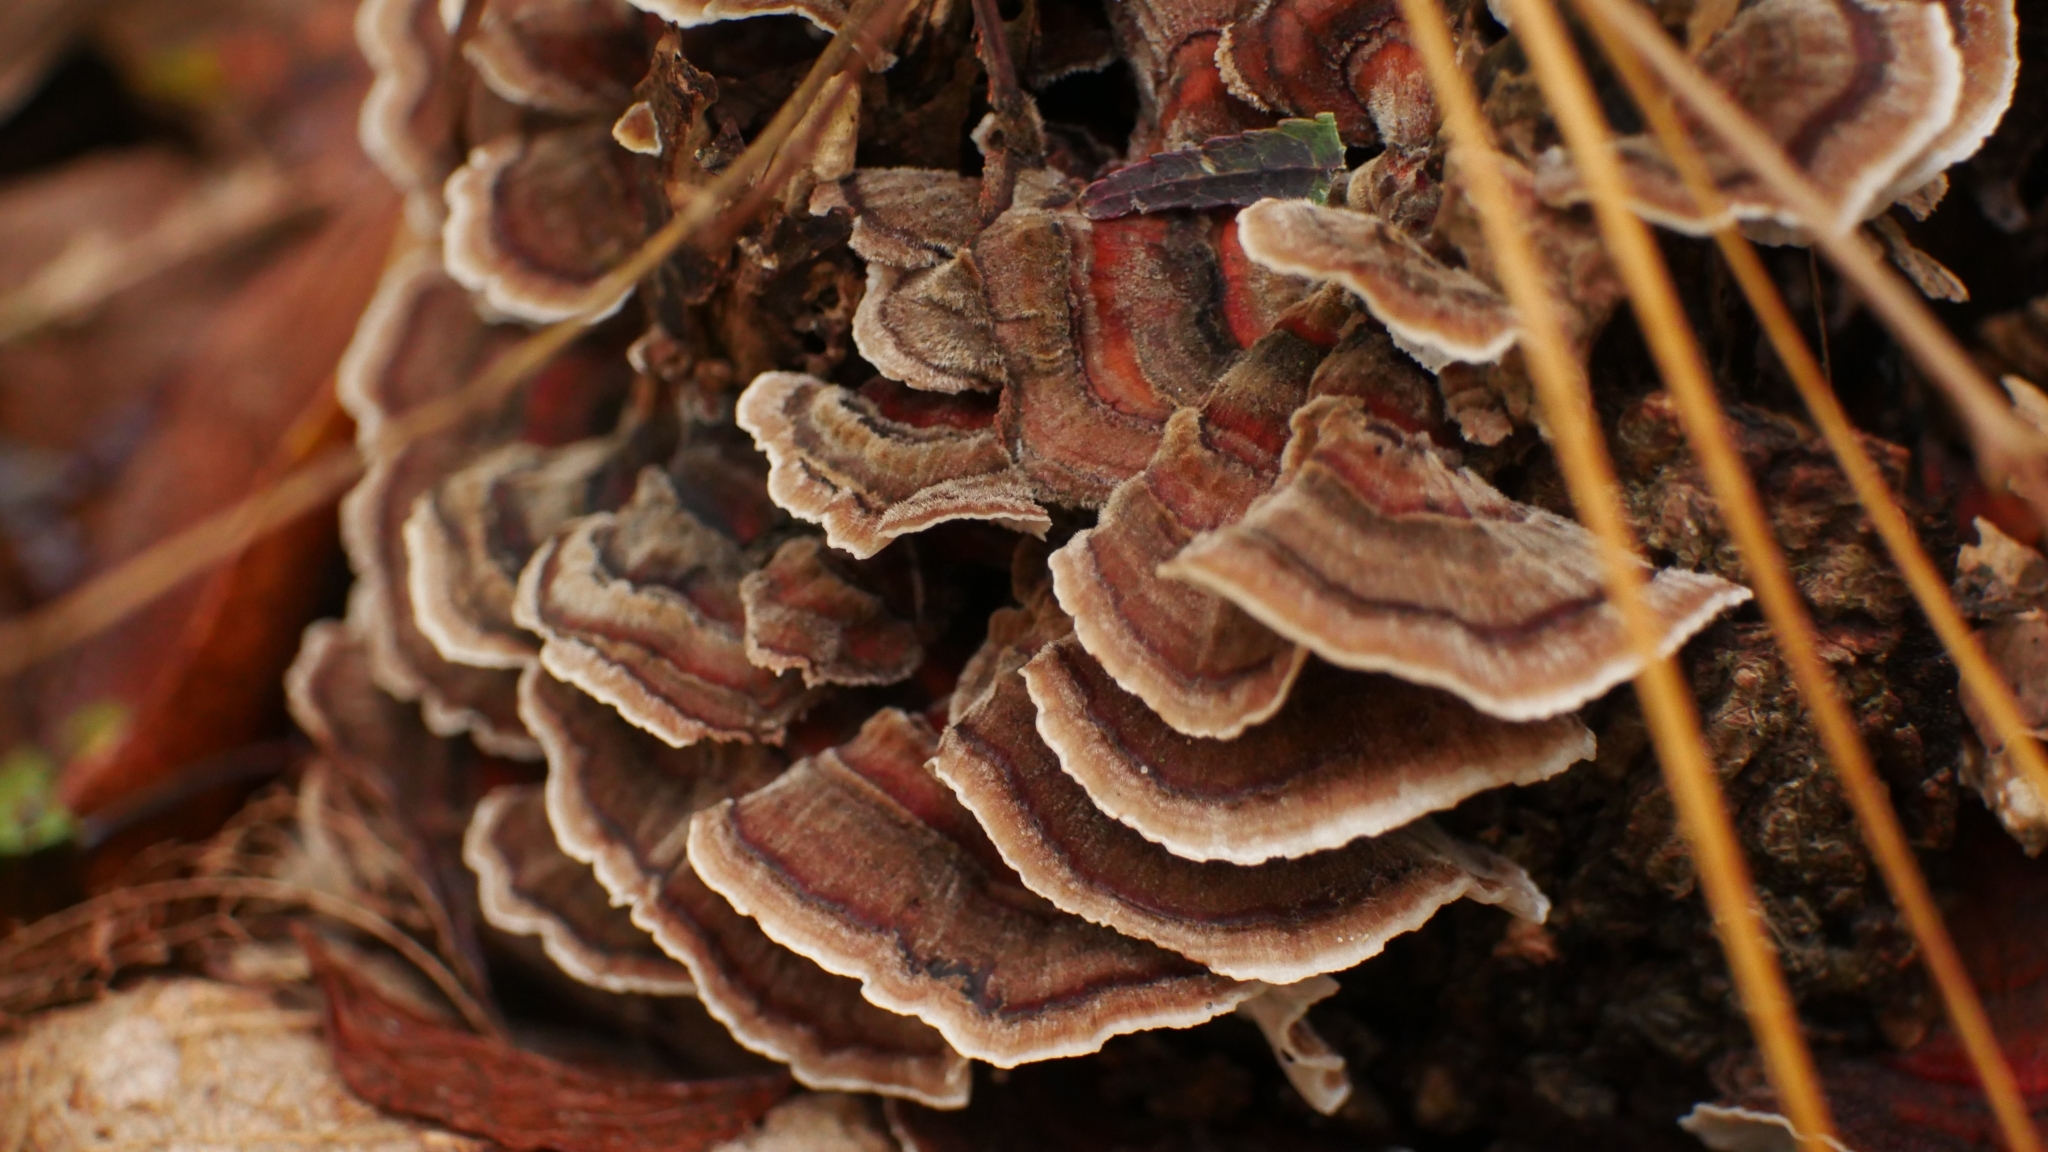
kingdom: Fungi
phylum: Basidiomycota
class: Agaricomycetes
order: Polyporales
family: Polyporaceae
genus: Trametes
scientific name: Trametes versicolor
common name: Turkeytail
